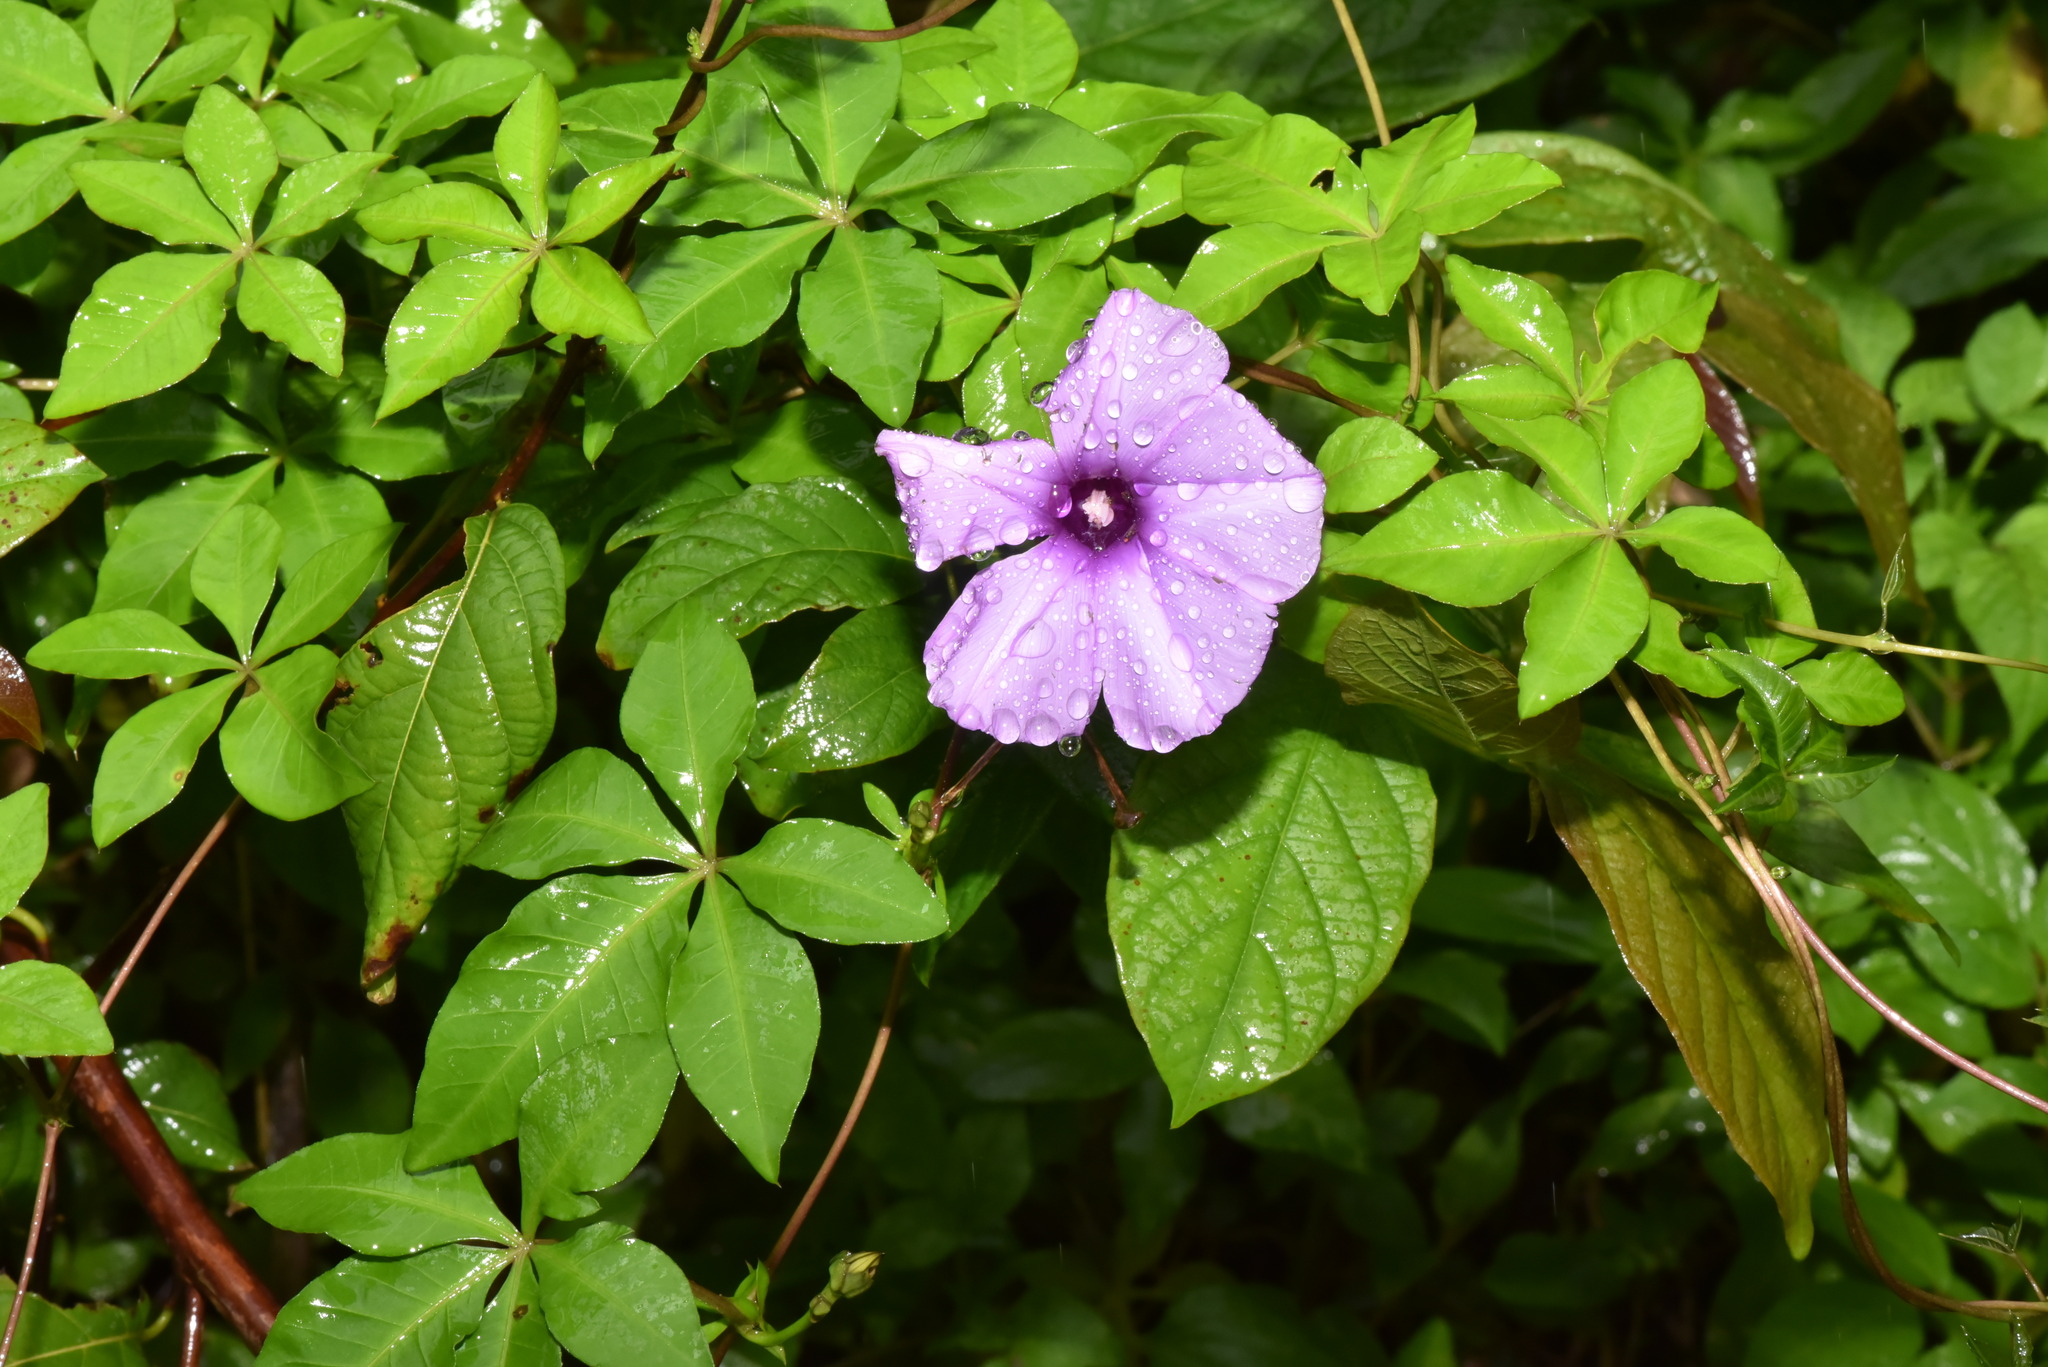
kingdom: Plantae
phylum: Tracheophyta
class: Magnoliopsida
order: Solanales
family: Convolvulaceae
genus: Ipomoea
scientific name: Ipomoea cairica
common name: Mile a minute vine
